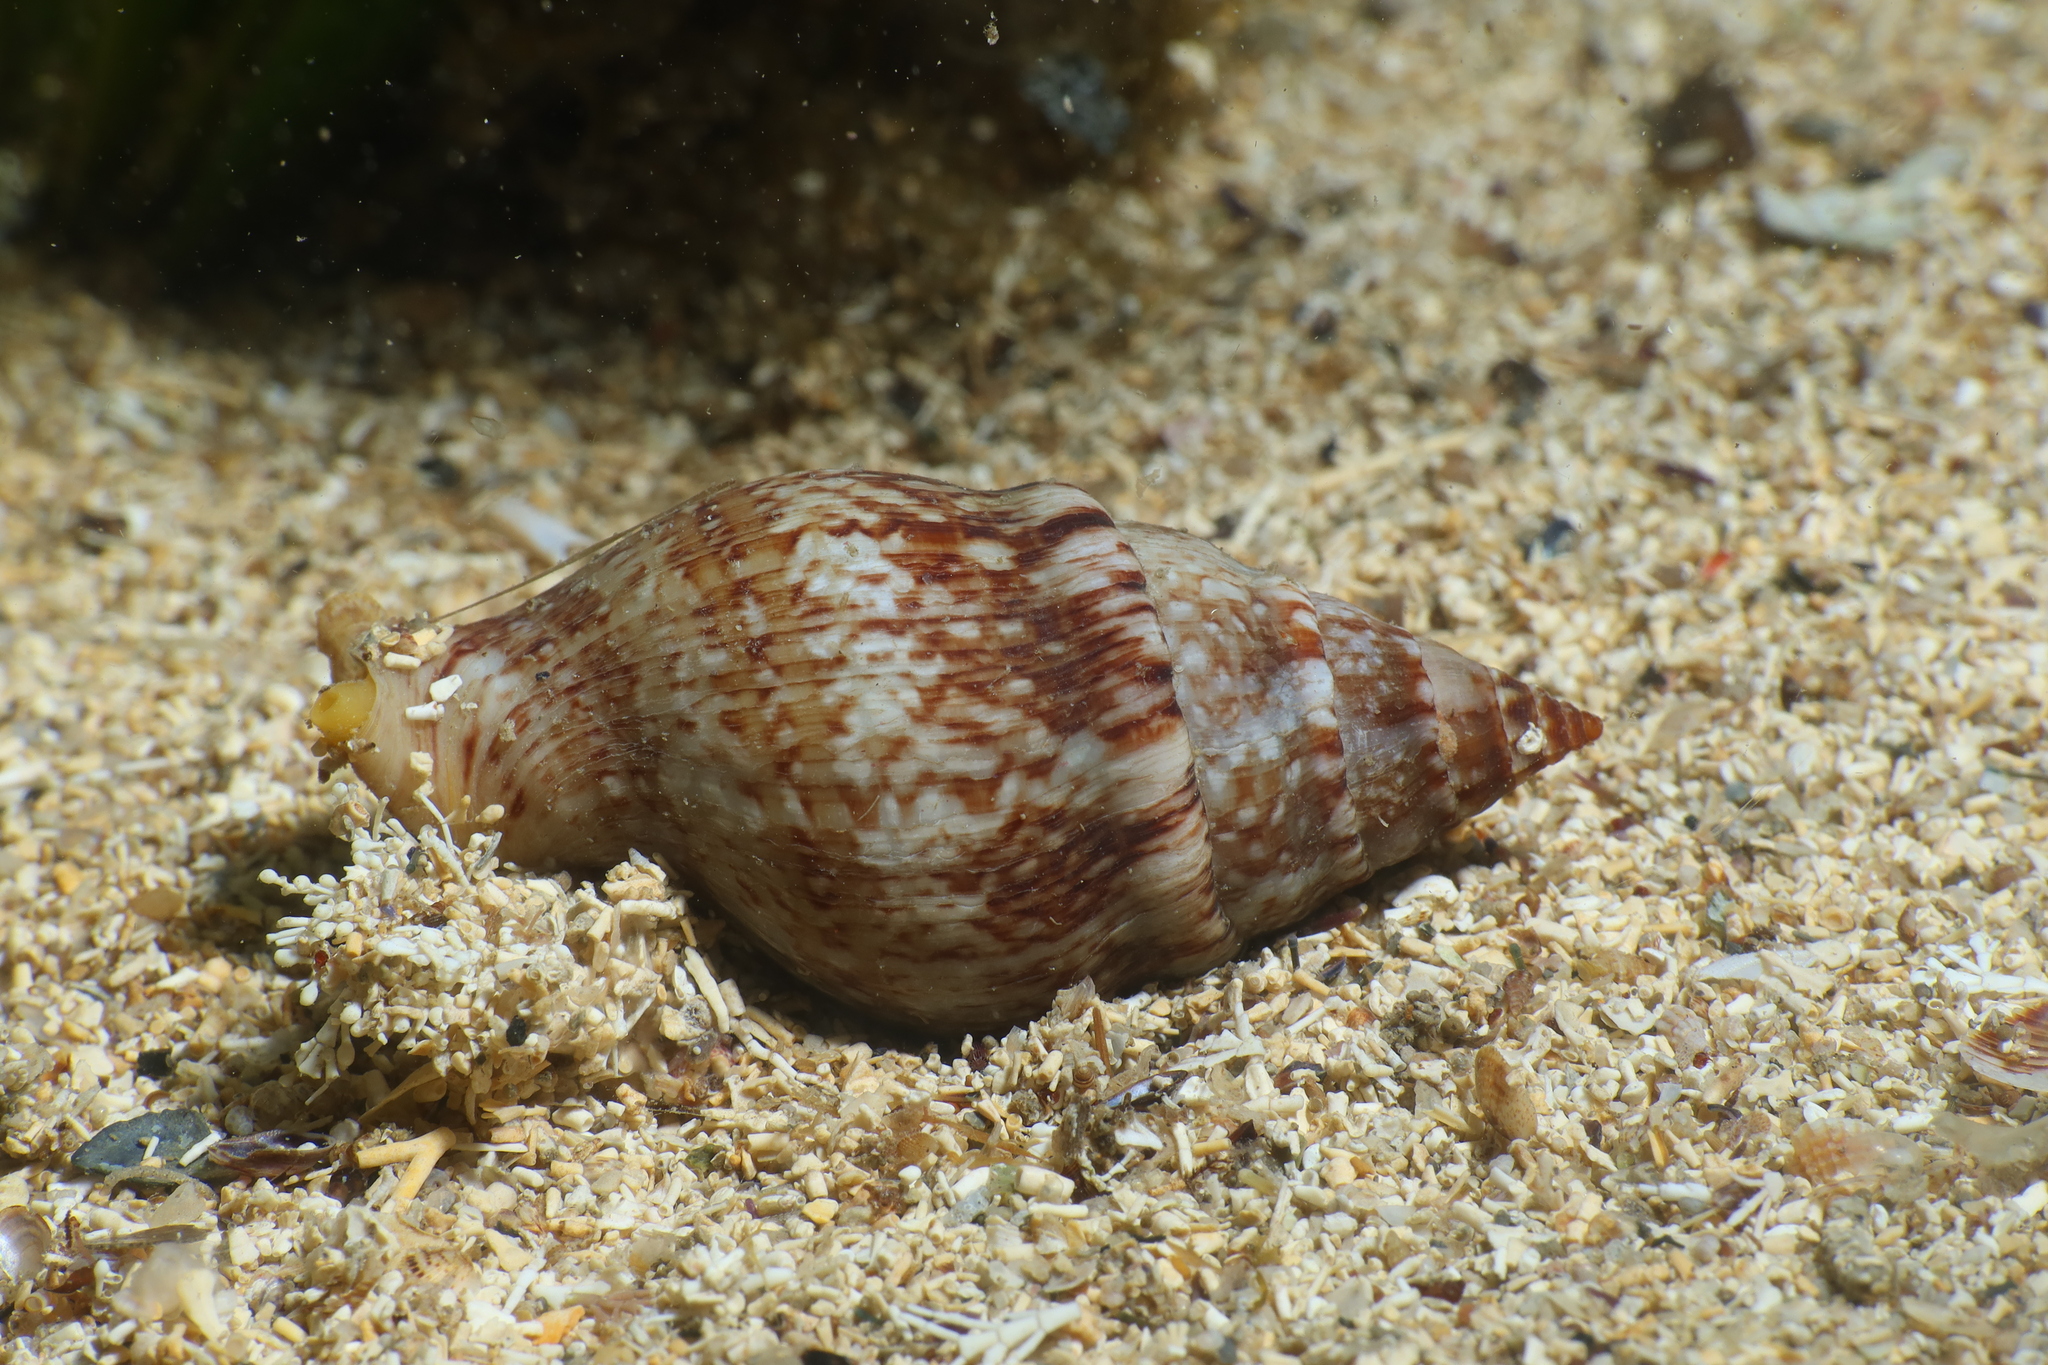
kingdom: Animalia
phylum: Mollusca
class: Gastropoda
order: Neogastropoda
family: Tudiclidae
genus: Euthria
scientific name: Euthria cornea
